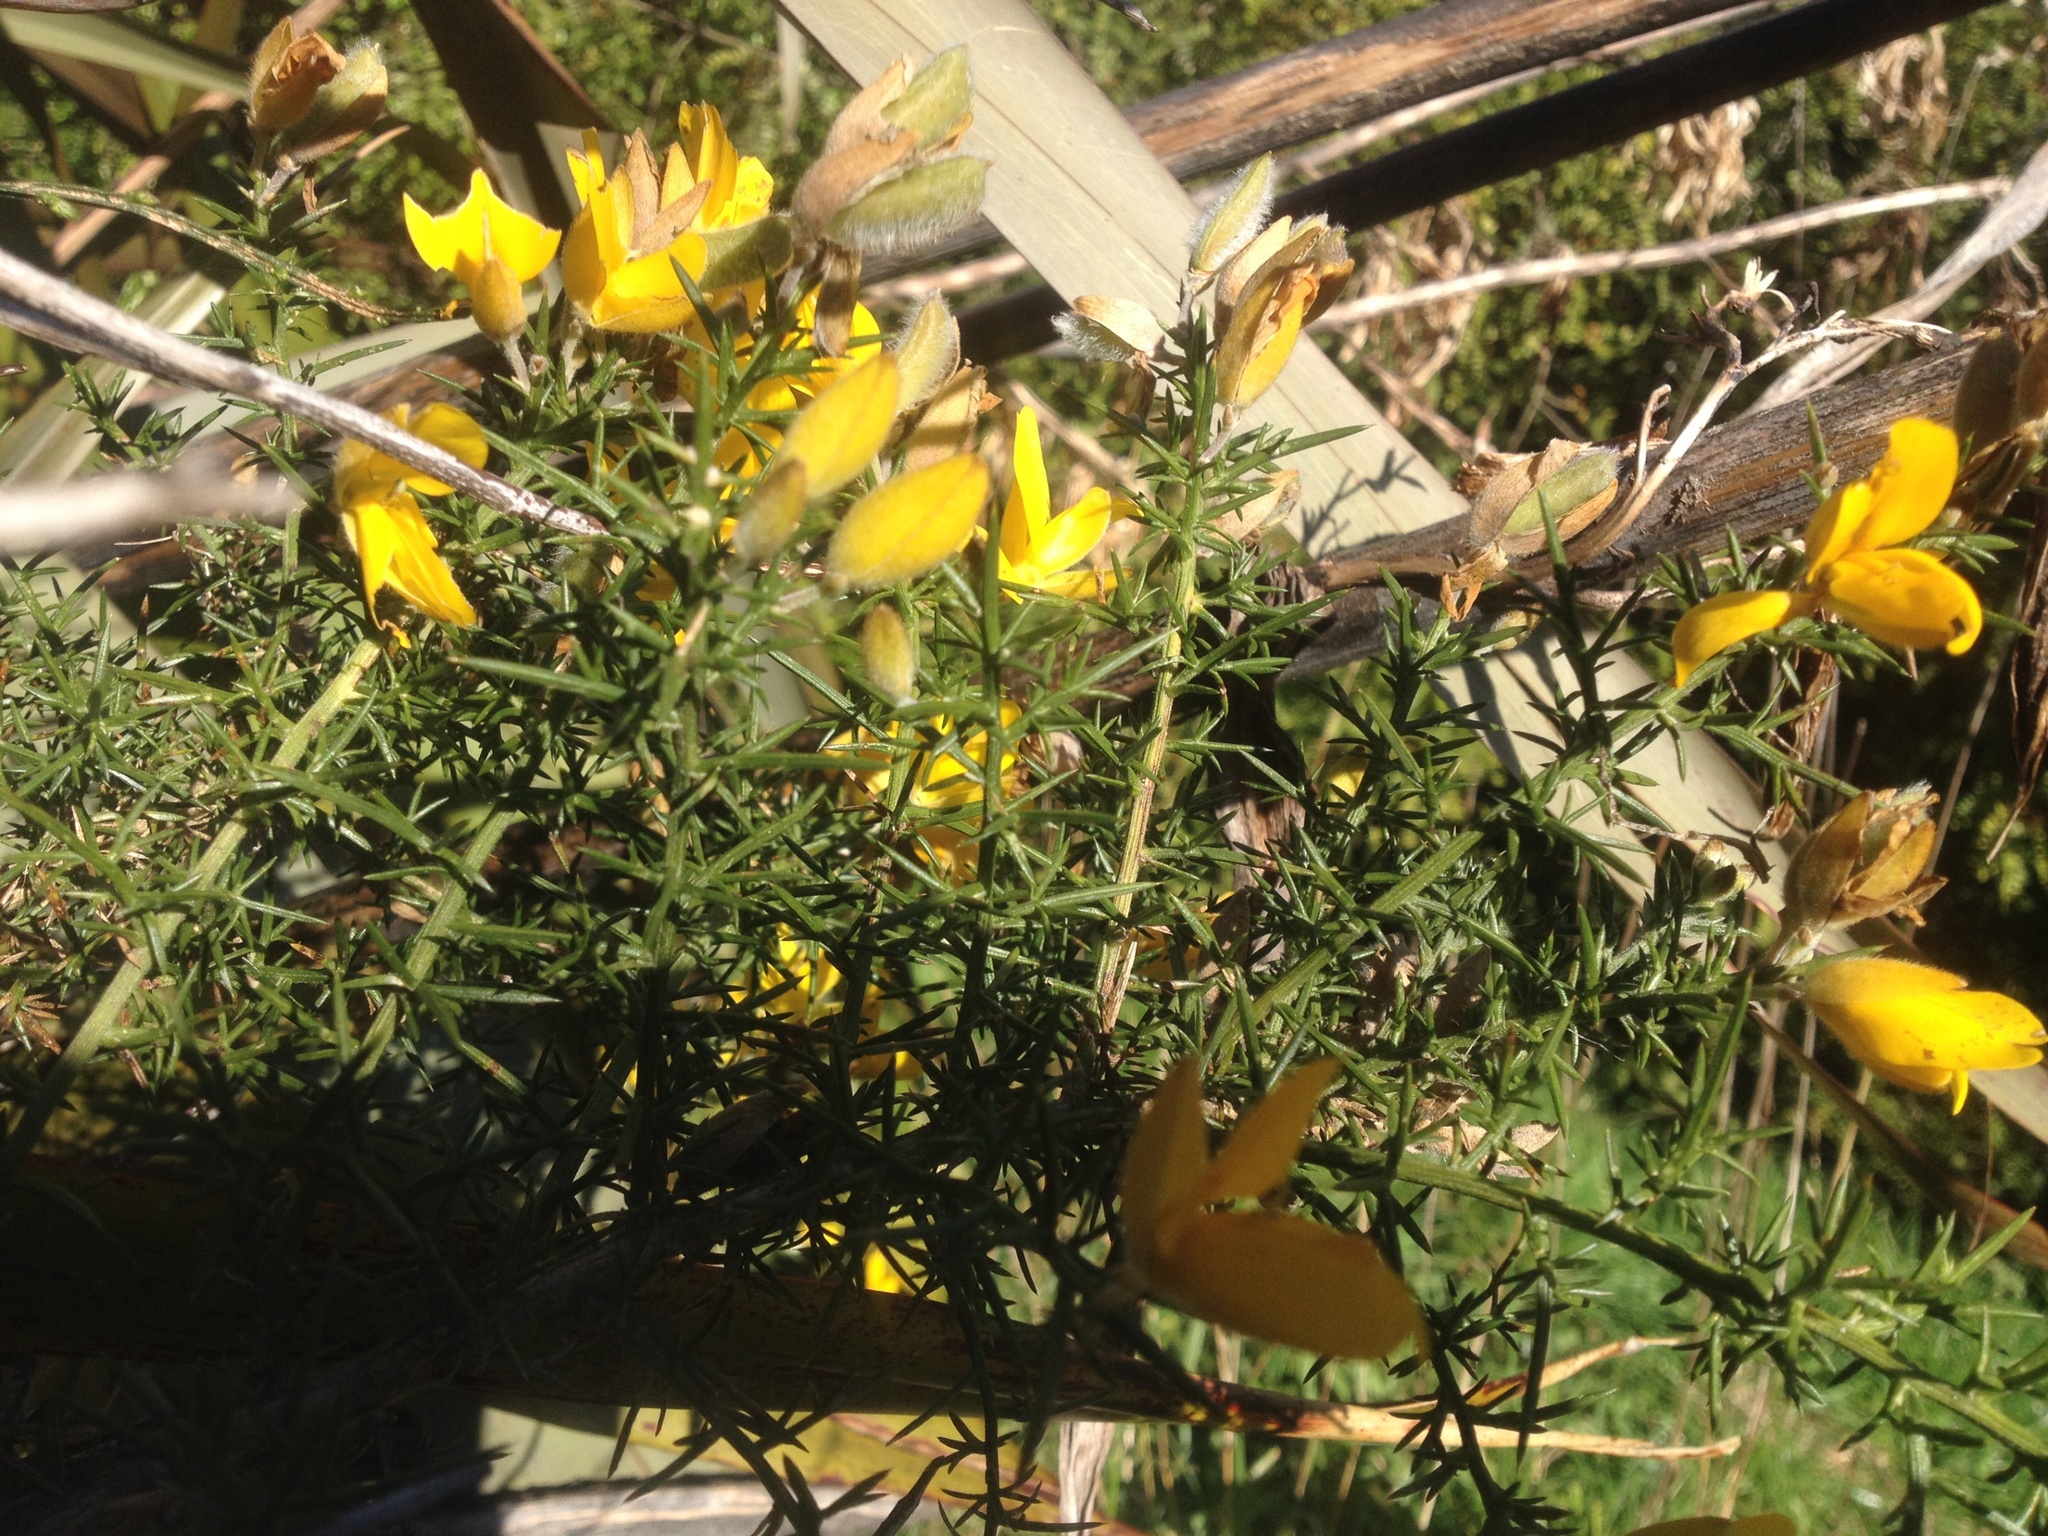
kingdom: Plantae
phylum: Tracheophyta
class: Magnoliopsida
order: Fabales
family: Fabaceae
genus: Ulex
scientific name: Ulex europaeus
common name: Common gorse
